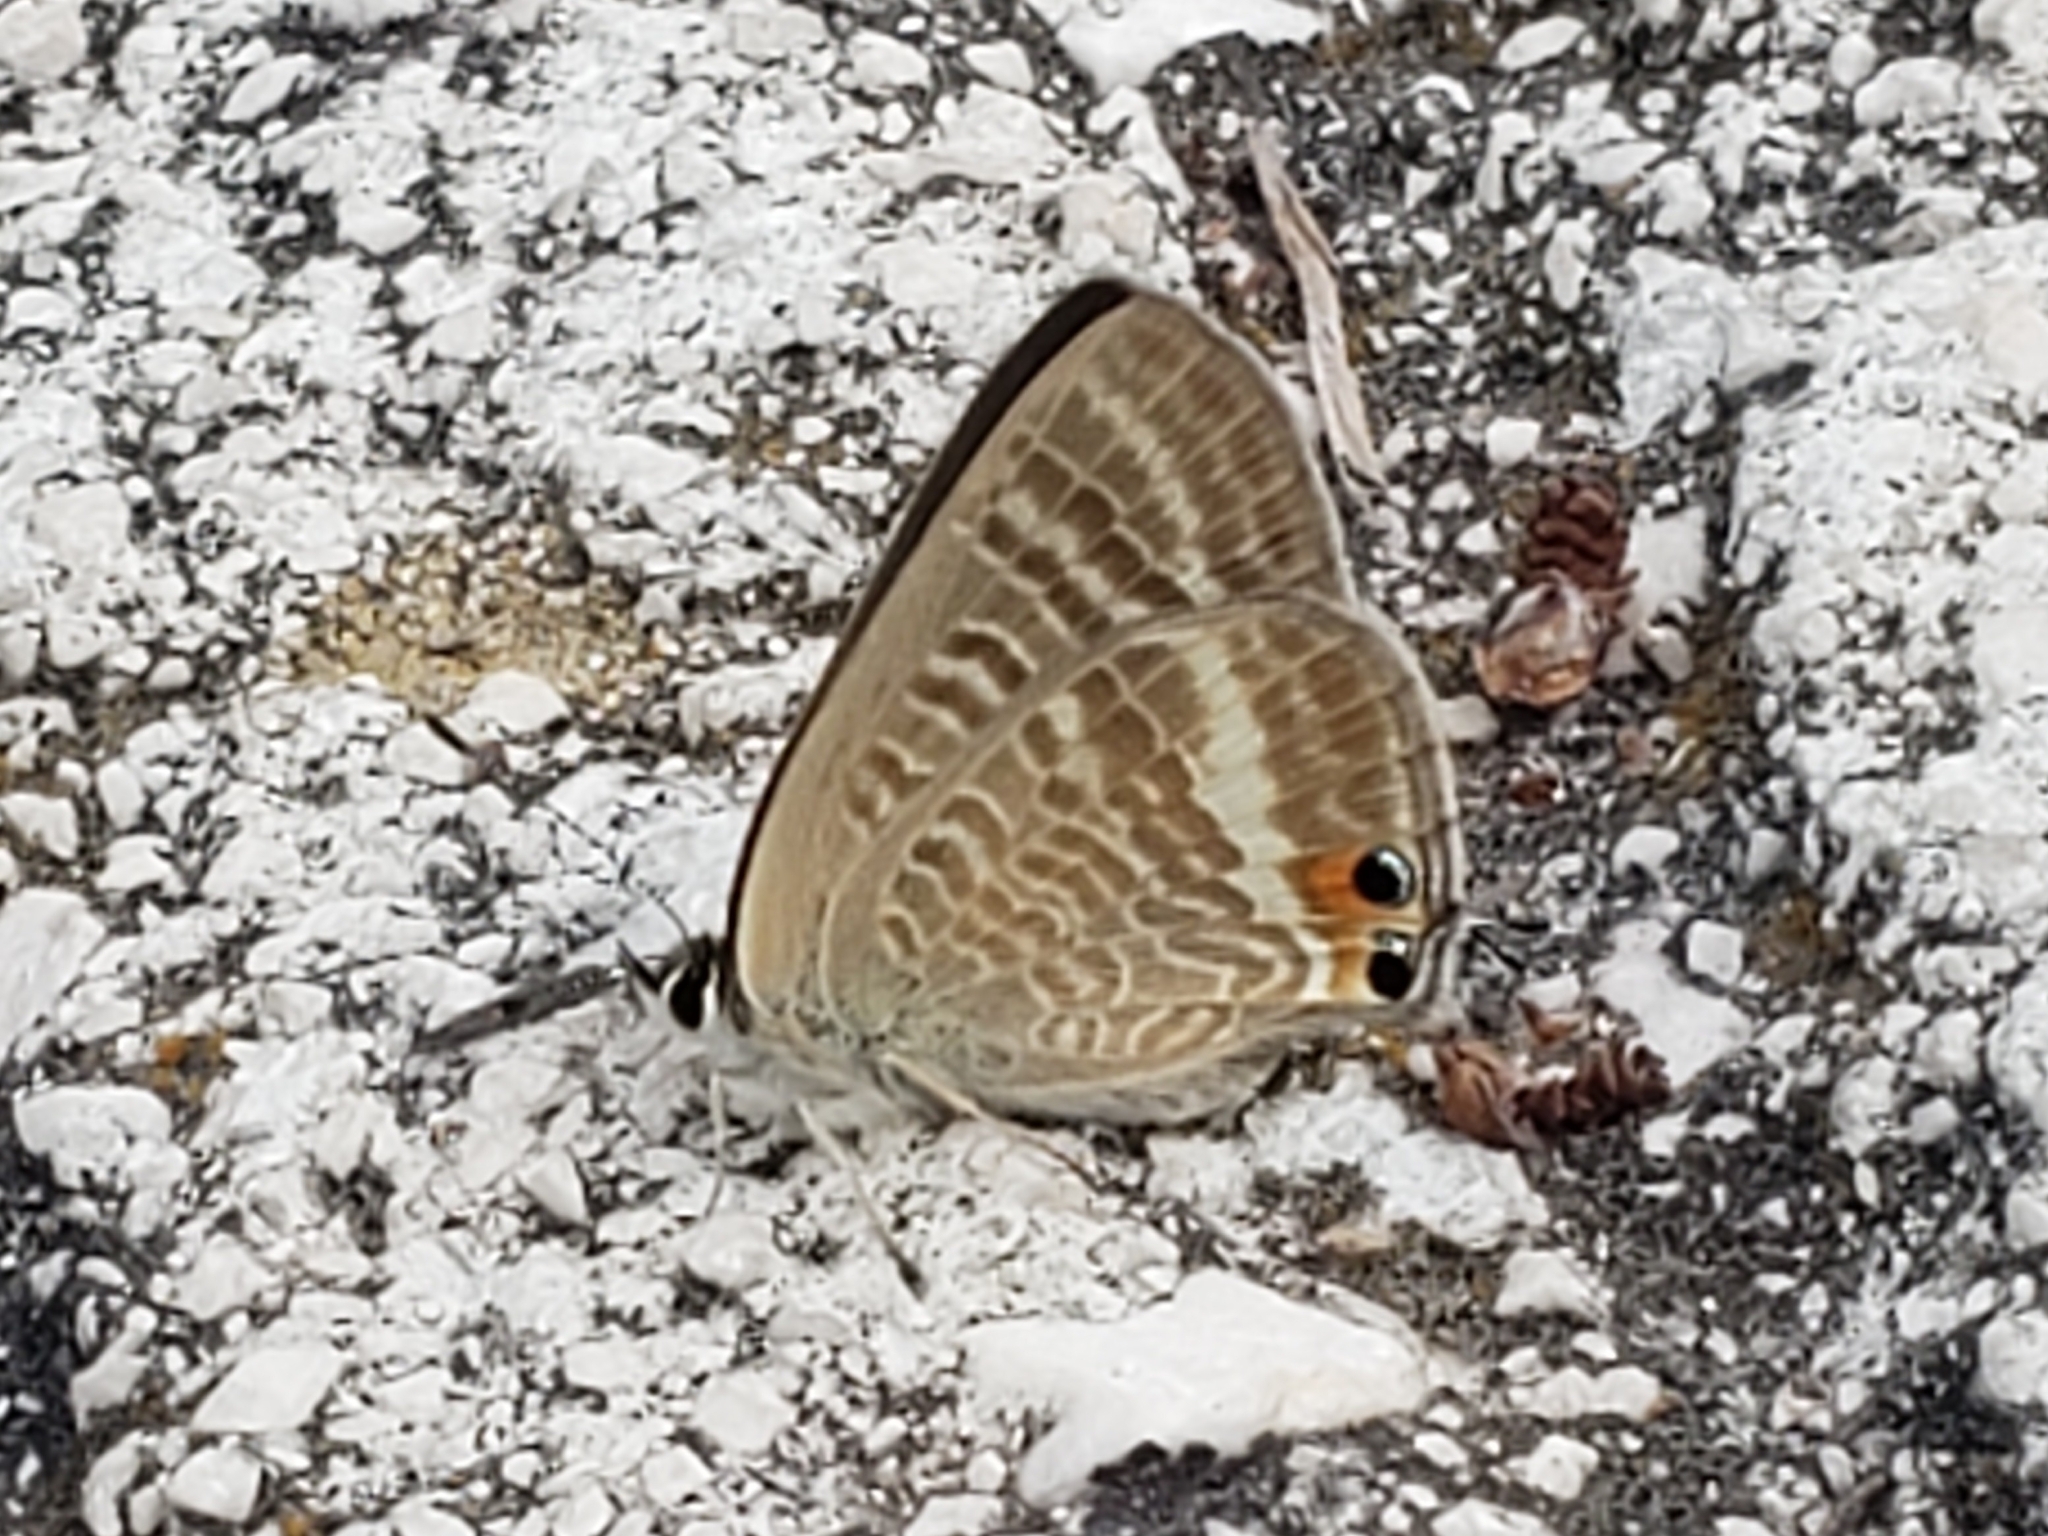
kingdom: Animalia
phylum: Arthropoda
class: Insecta
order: Lepidoptera
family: Lycaenidae
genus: Lampides
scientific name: Lampides boeticus
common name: Long-tailed blue
